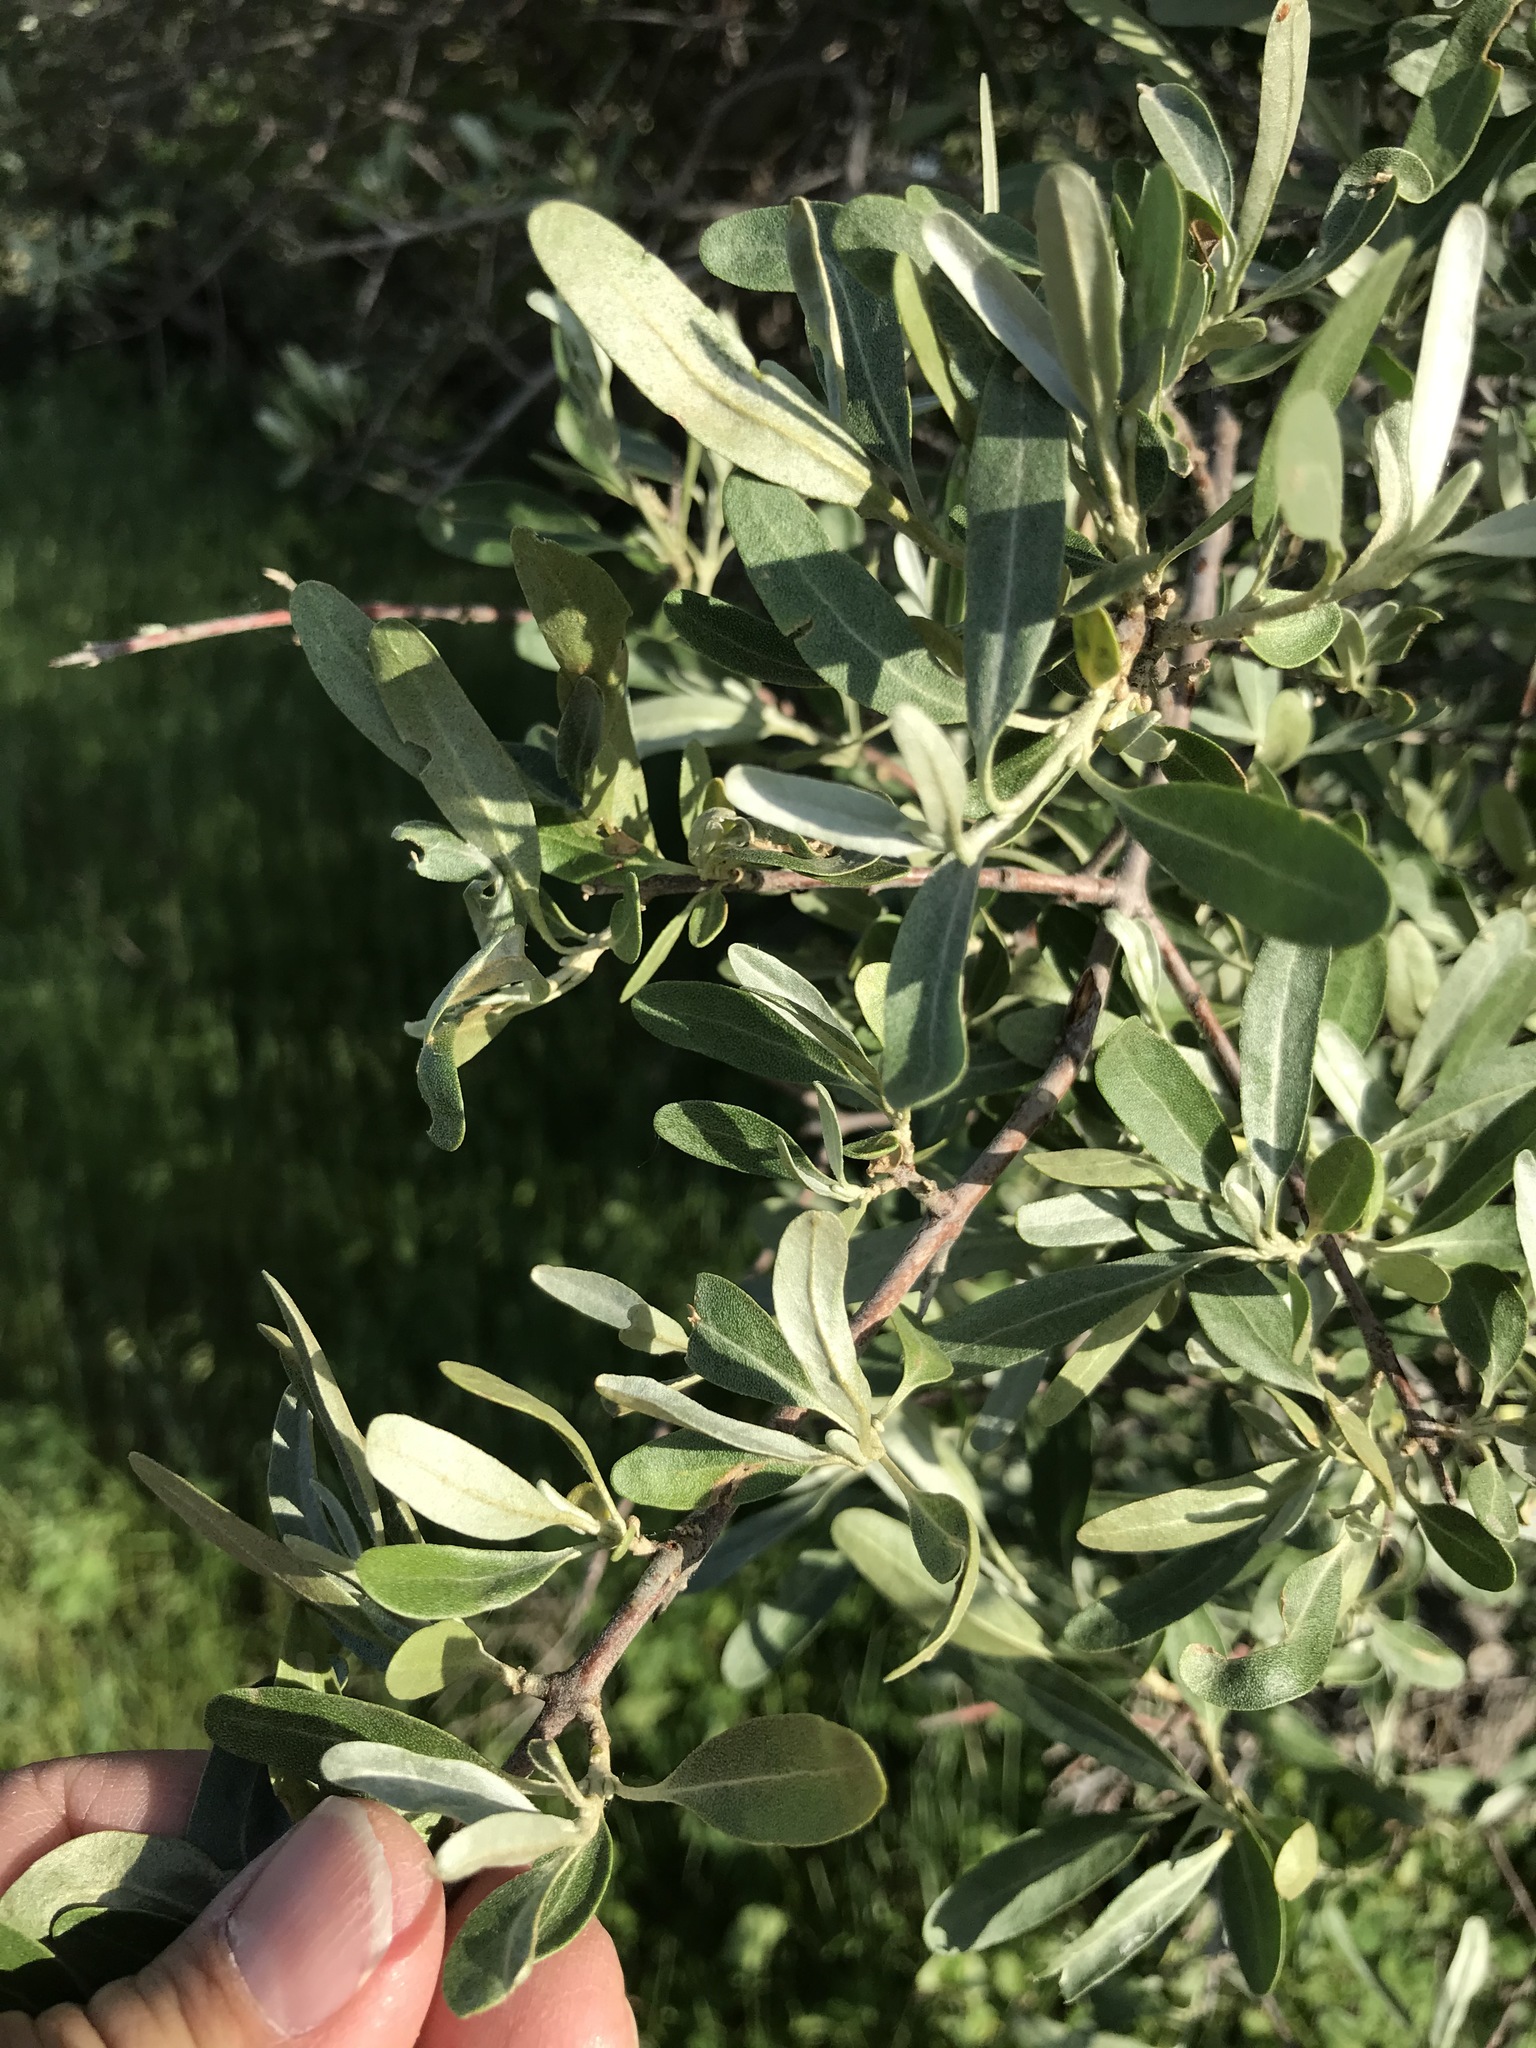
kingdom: Plantae
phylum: Tracheophyta
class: Magnoliopsida
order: Rosales
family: Elaeagnaceae
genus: Shepherdia
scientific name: Shepherdia argentea
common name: Silver buffaloberry
